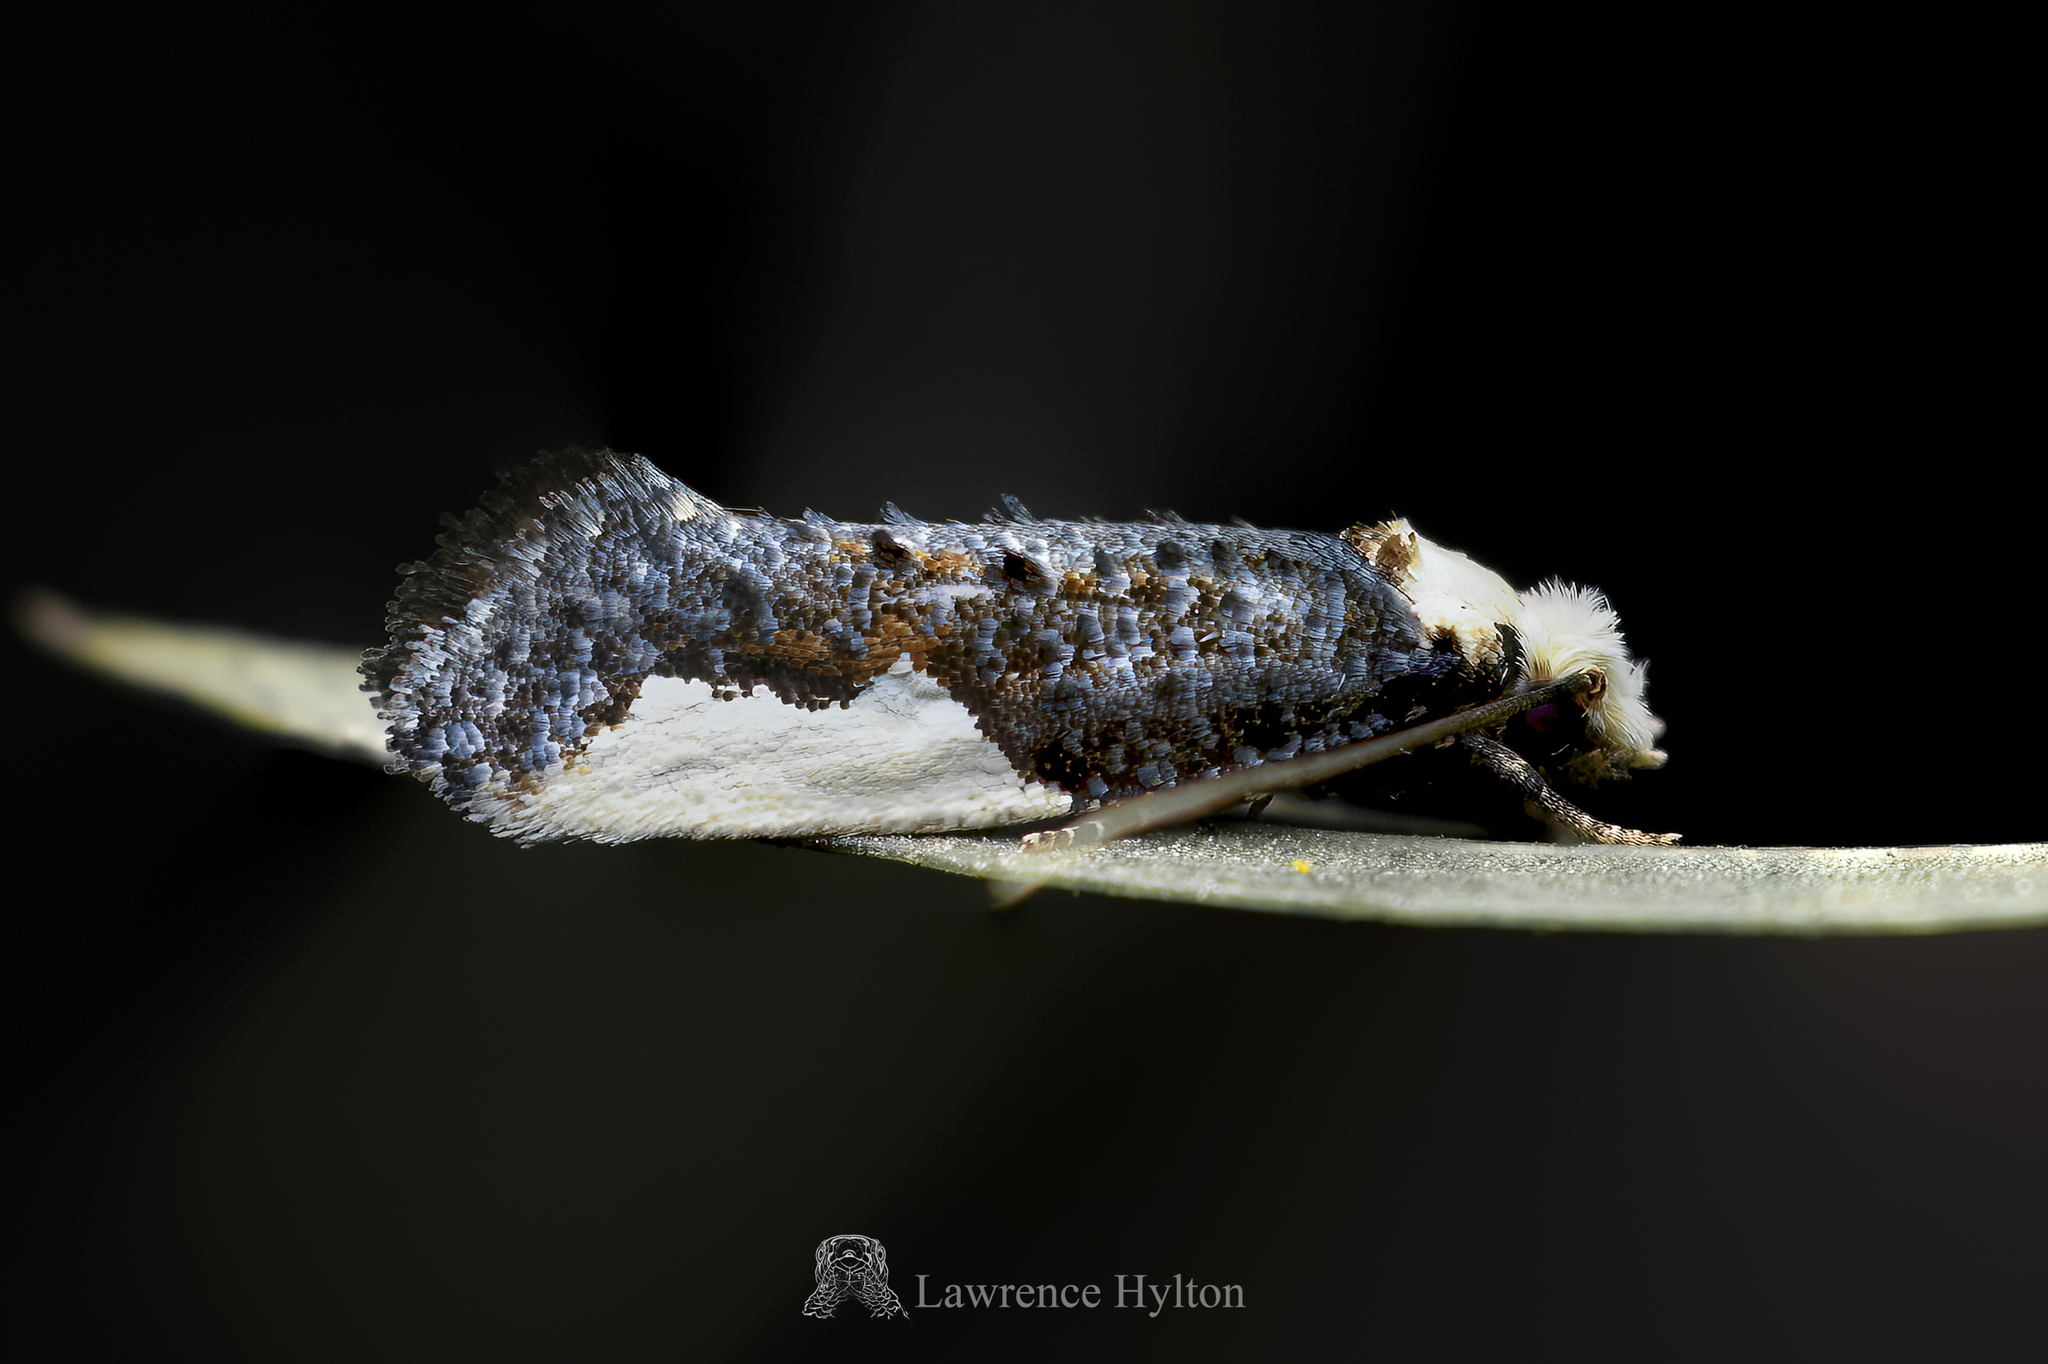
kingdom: Animalia
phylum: Arthropoda
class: Insecta
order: Lepidoptera
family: Tineidae
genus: Monopis
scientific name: Monopis longella
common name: Pavlovski's monopis moth
